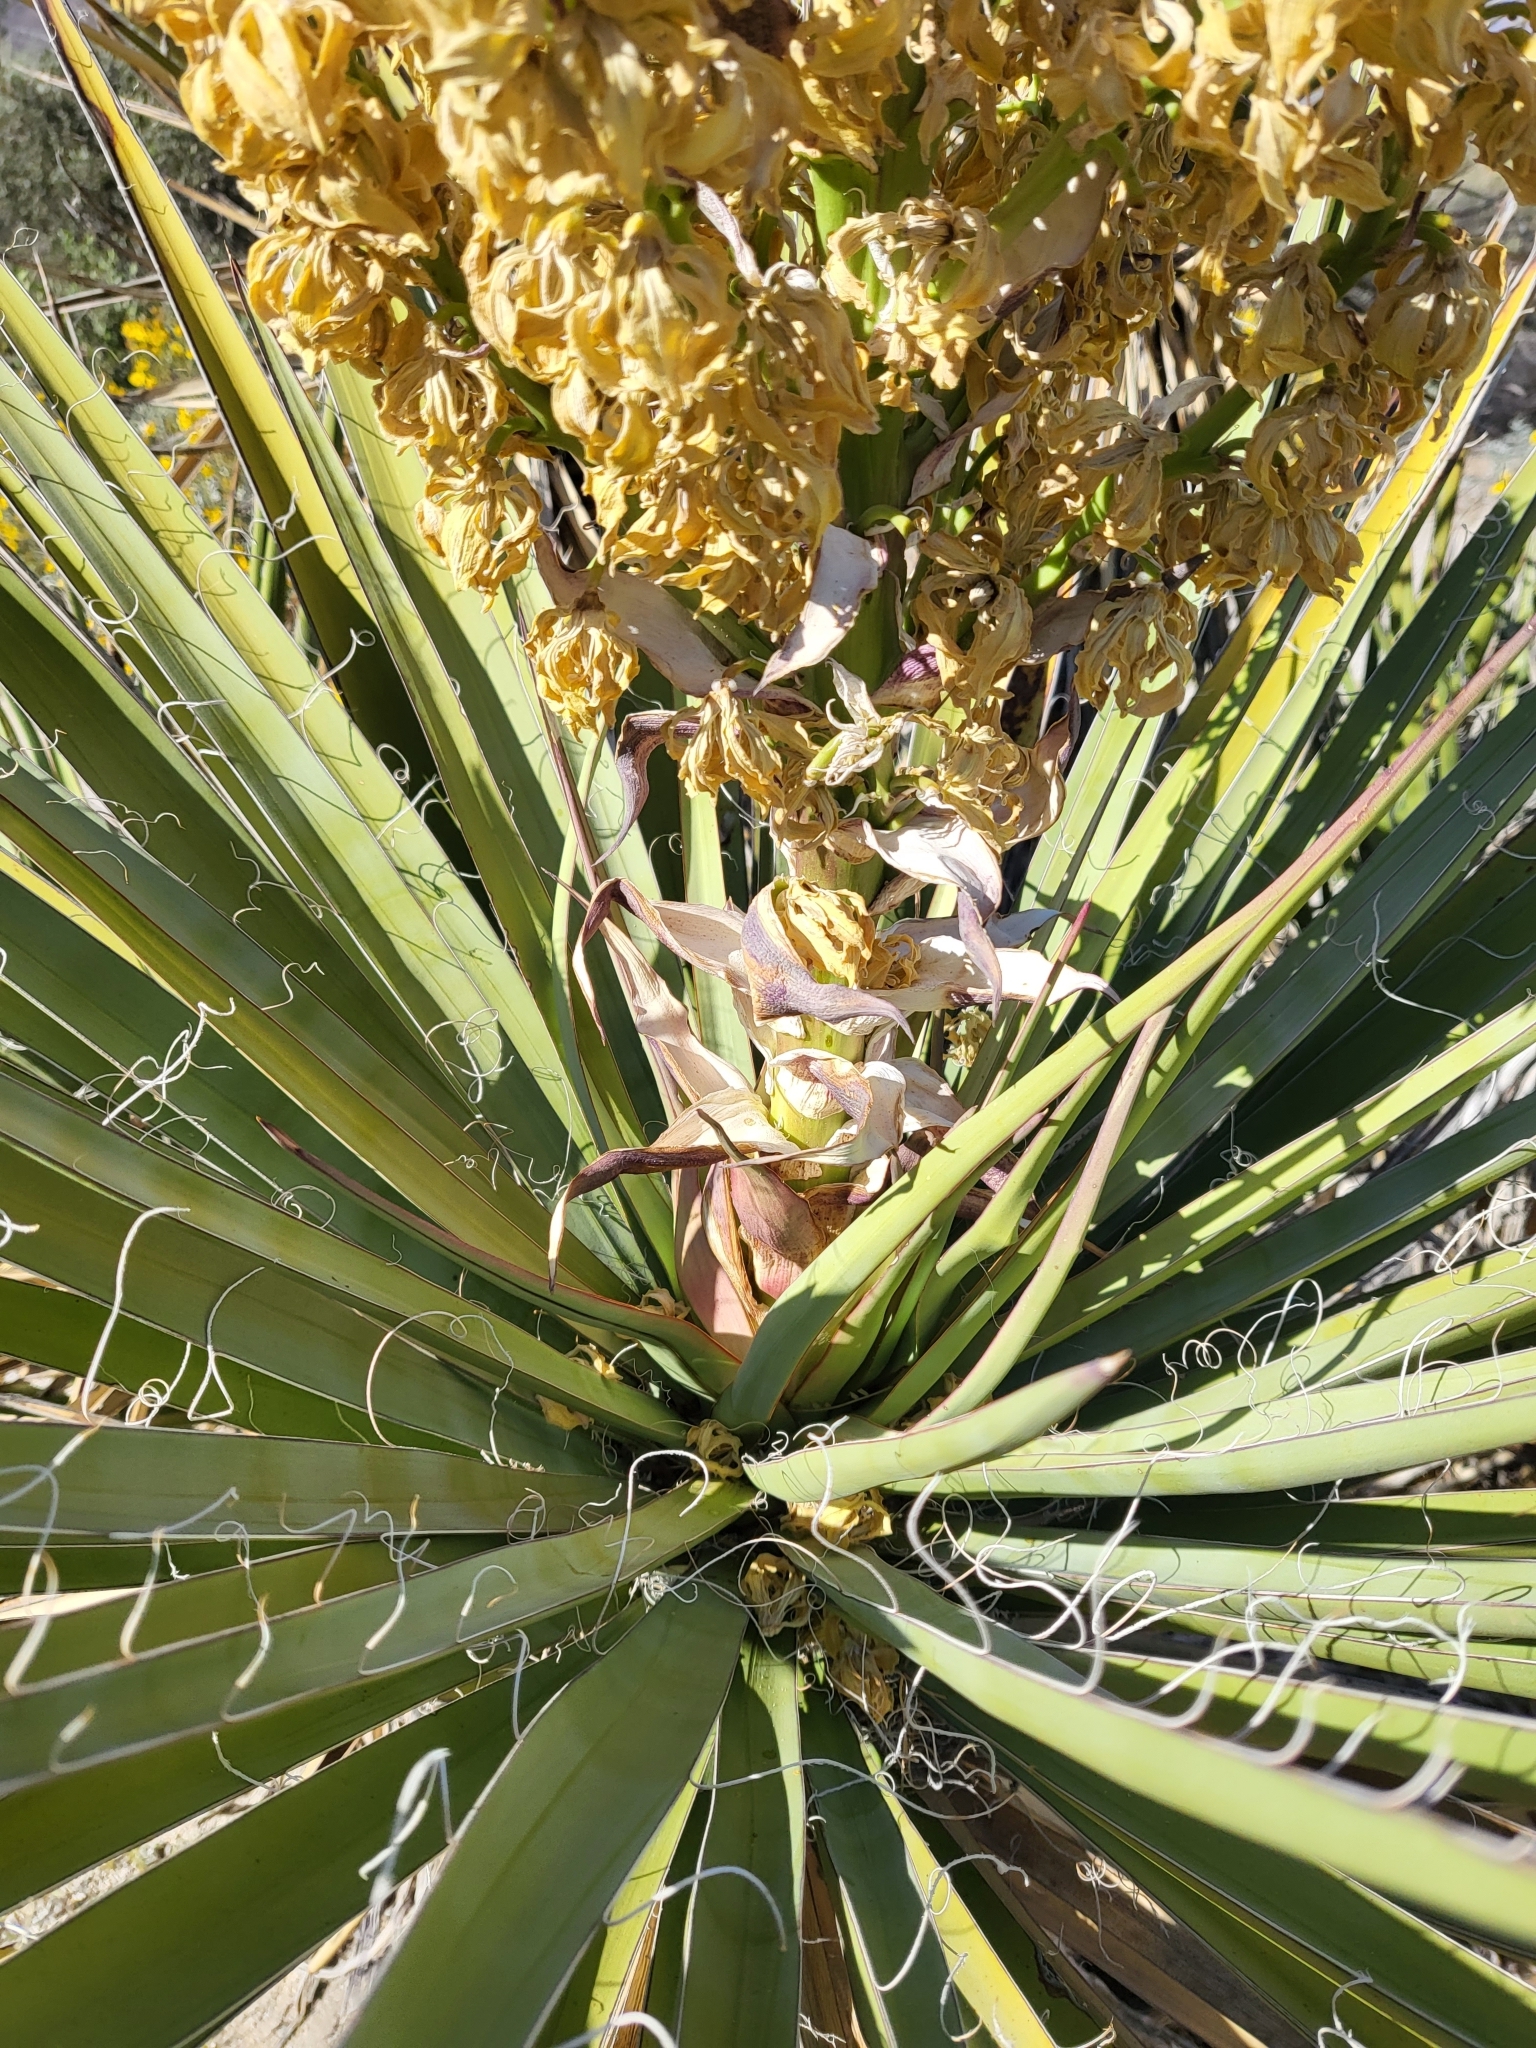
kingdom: Plantae
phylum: Tracheophyta
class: Liliopsida
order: Asparagales
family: Asparagaceae
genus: Yucca
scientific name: Yucca schidigera
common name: Mojave yucca
